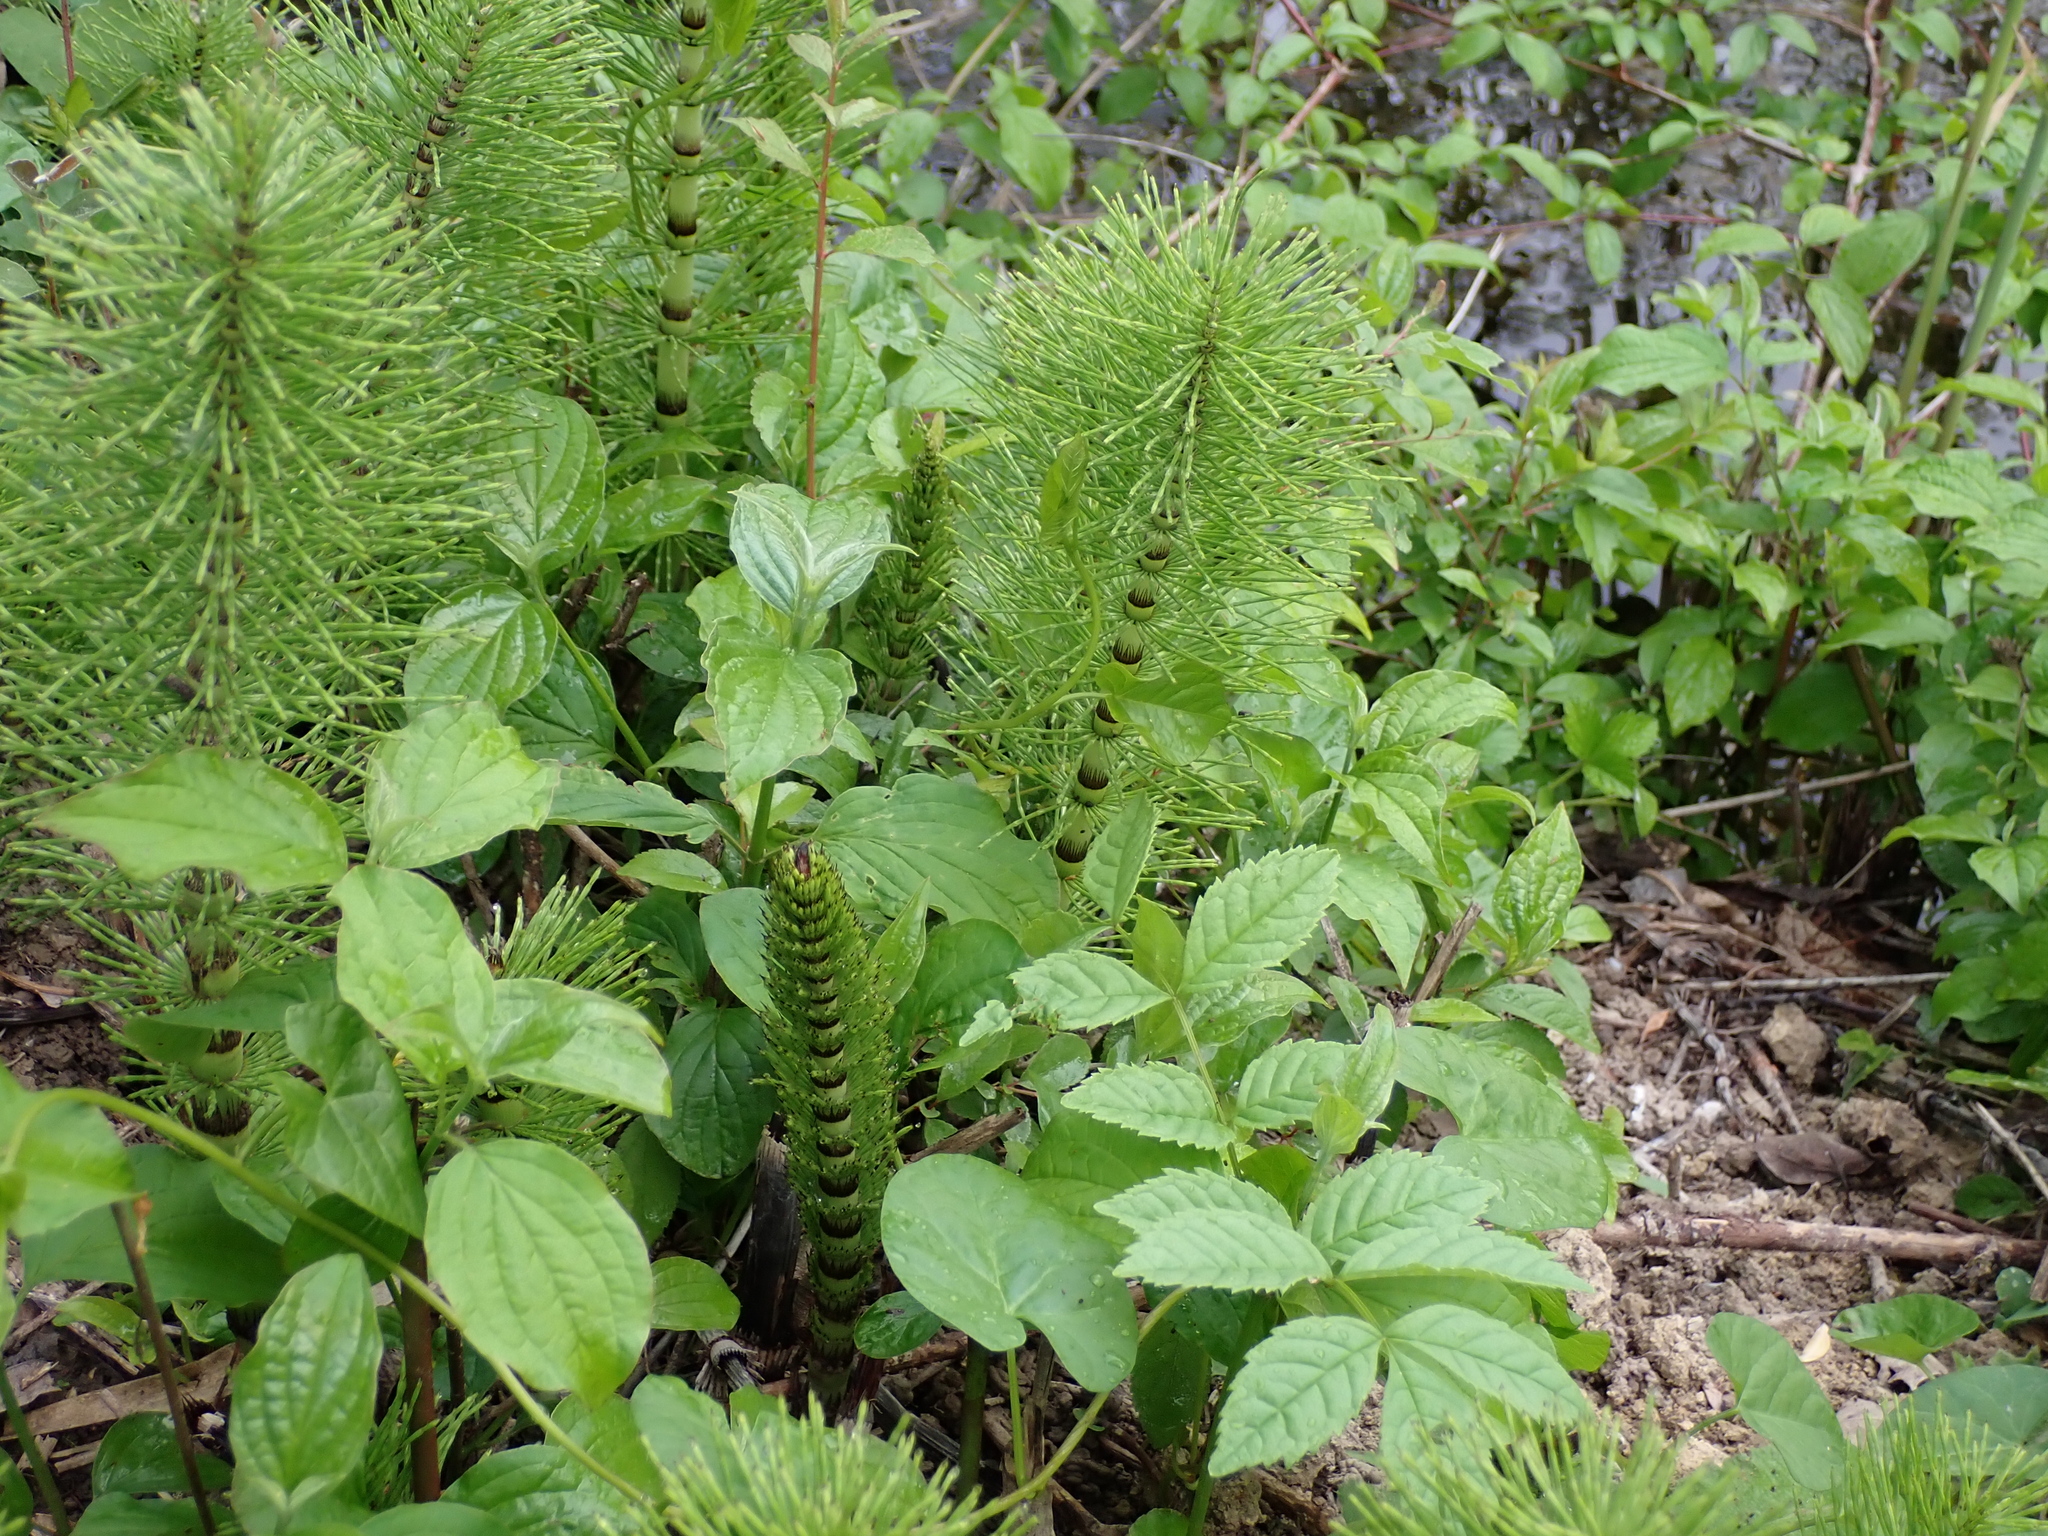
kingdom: Plantae
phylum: Tracheophyta
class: Polypodiopsida
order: Equisetales
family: Equisetaceae
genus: Equisetum
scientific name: Equisetum telmateia
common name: Great horsetail
